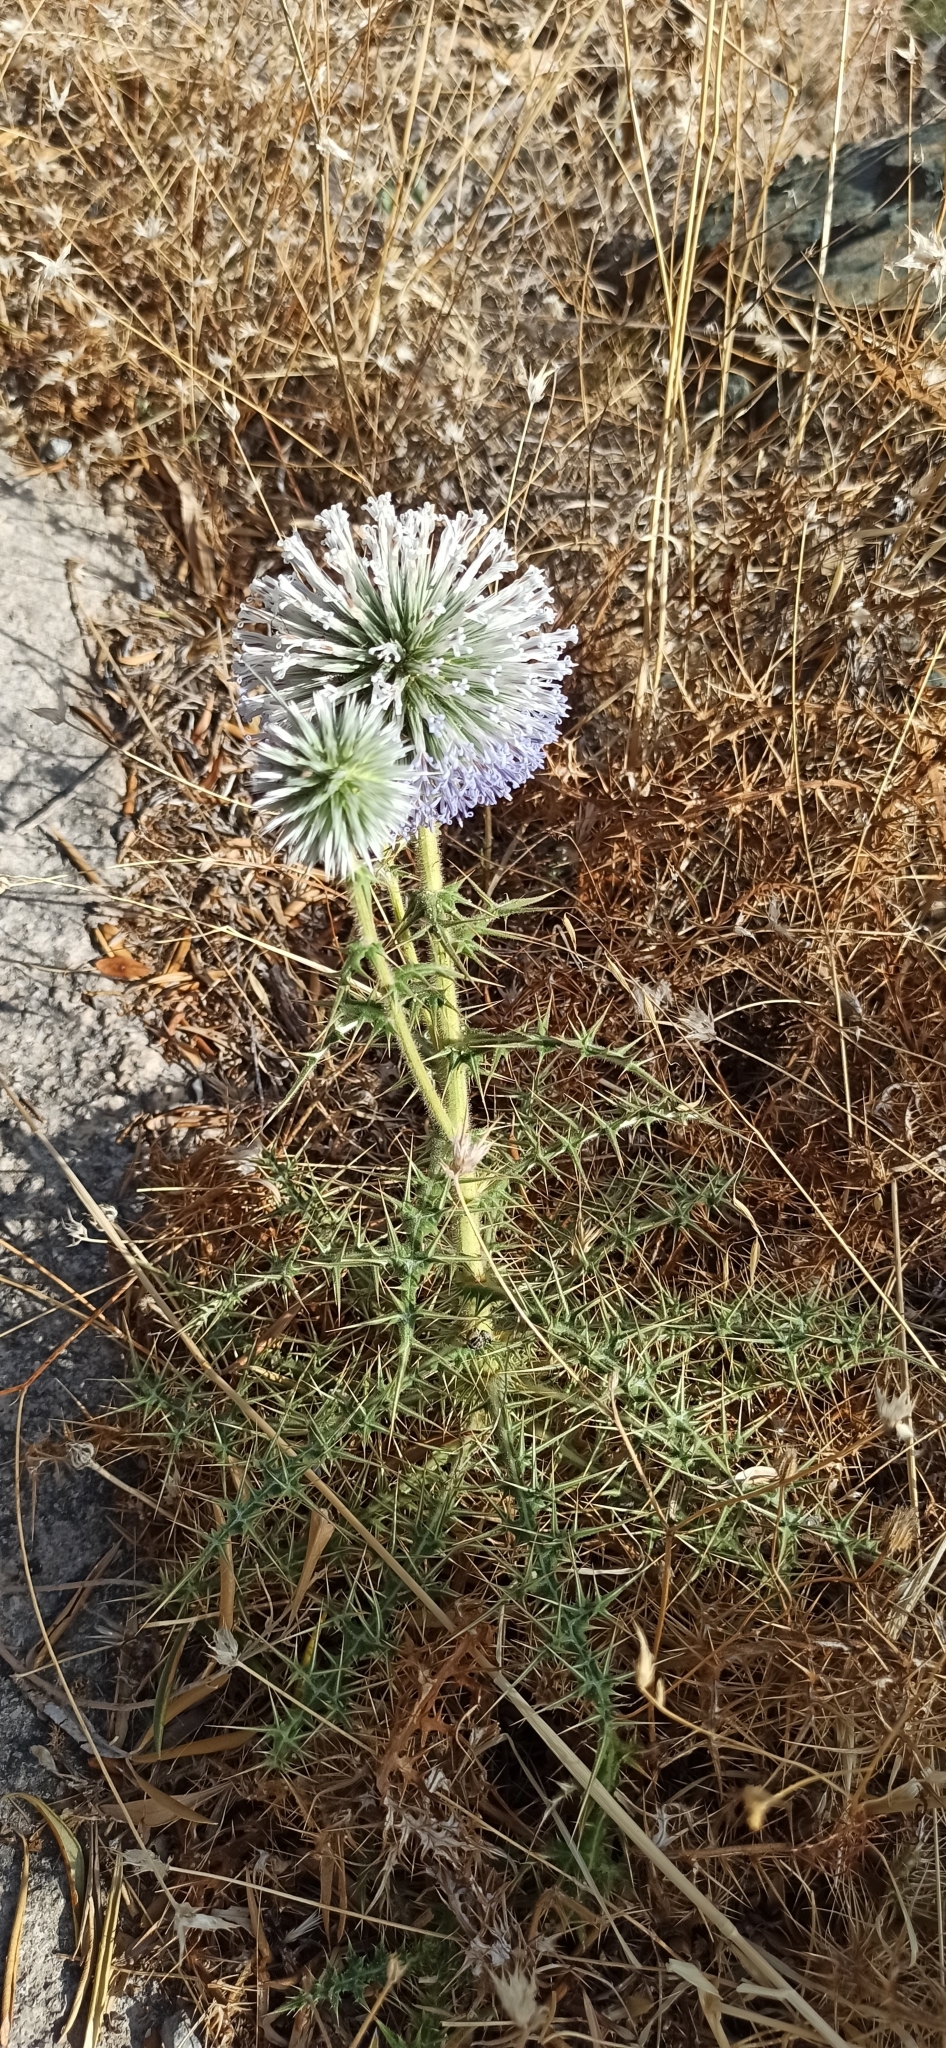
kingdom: Plantae
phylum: Tracheophyta
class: Magnoliopsida
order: Asterales
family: Asteraceae
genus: Echinops
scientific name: Echinops spinosissimus
